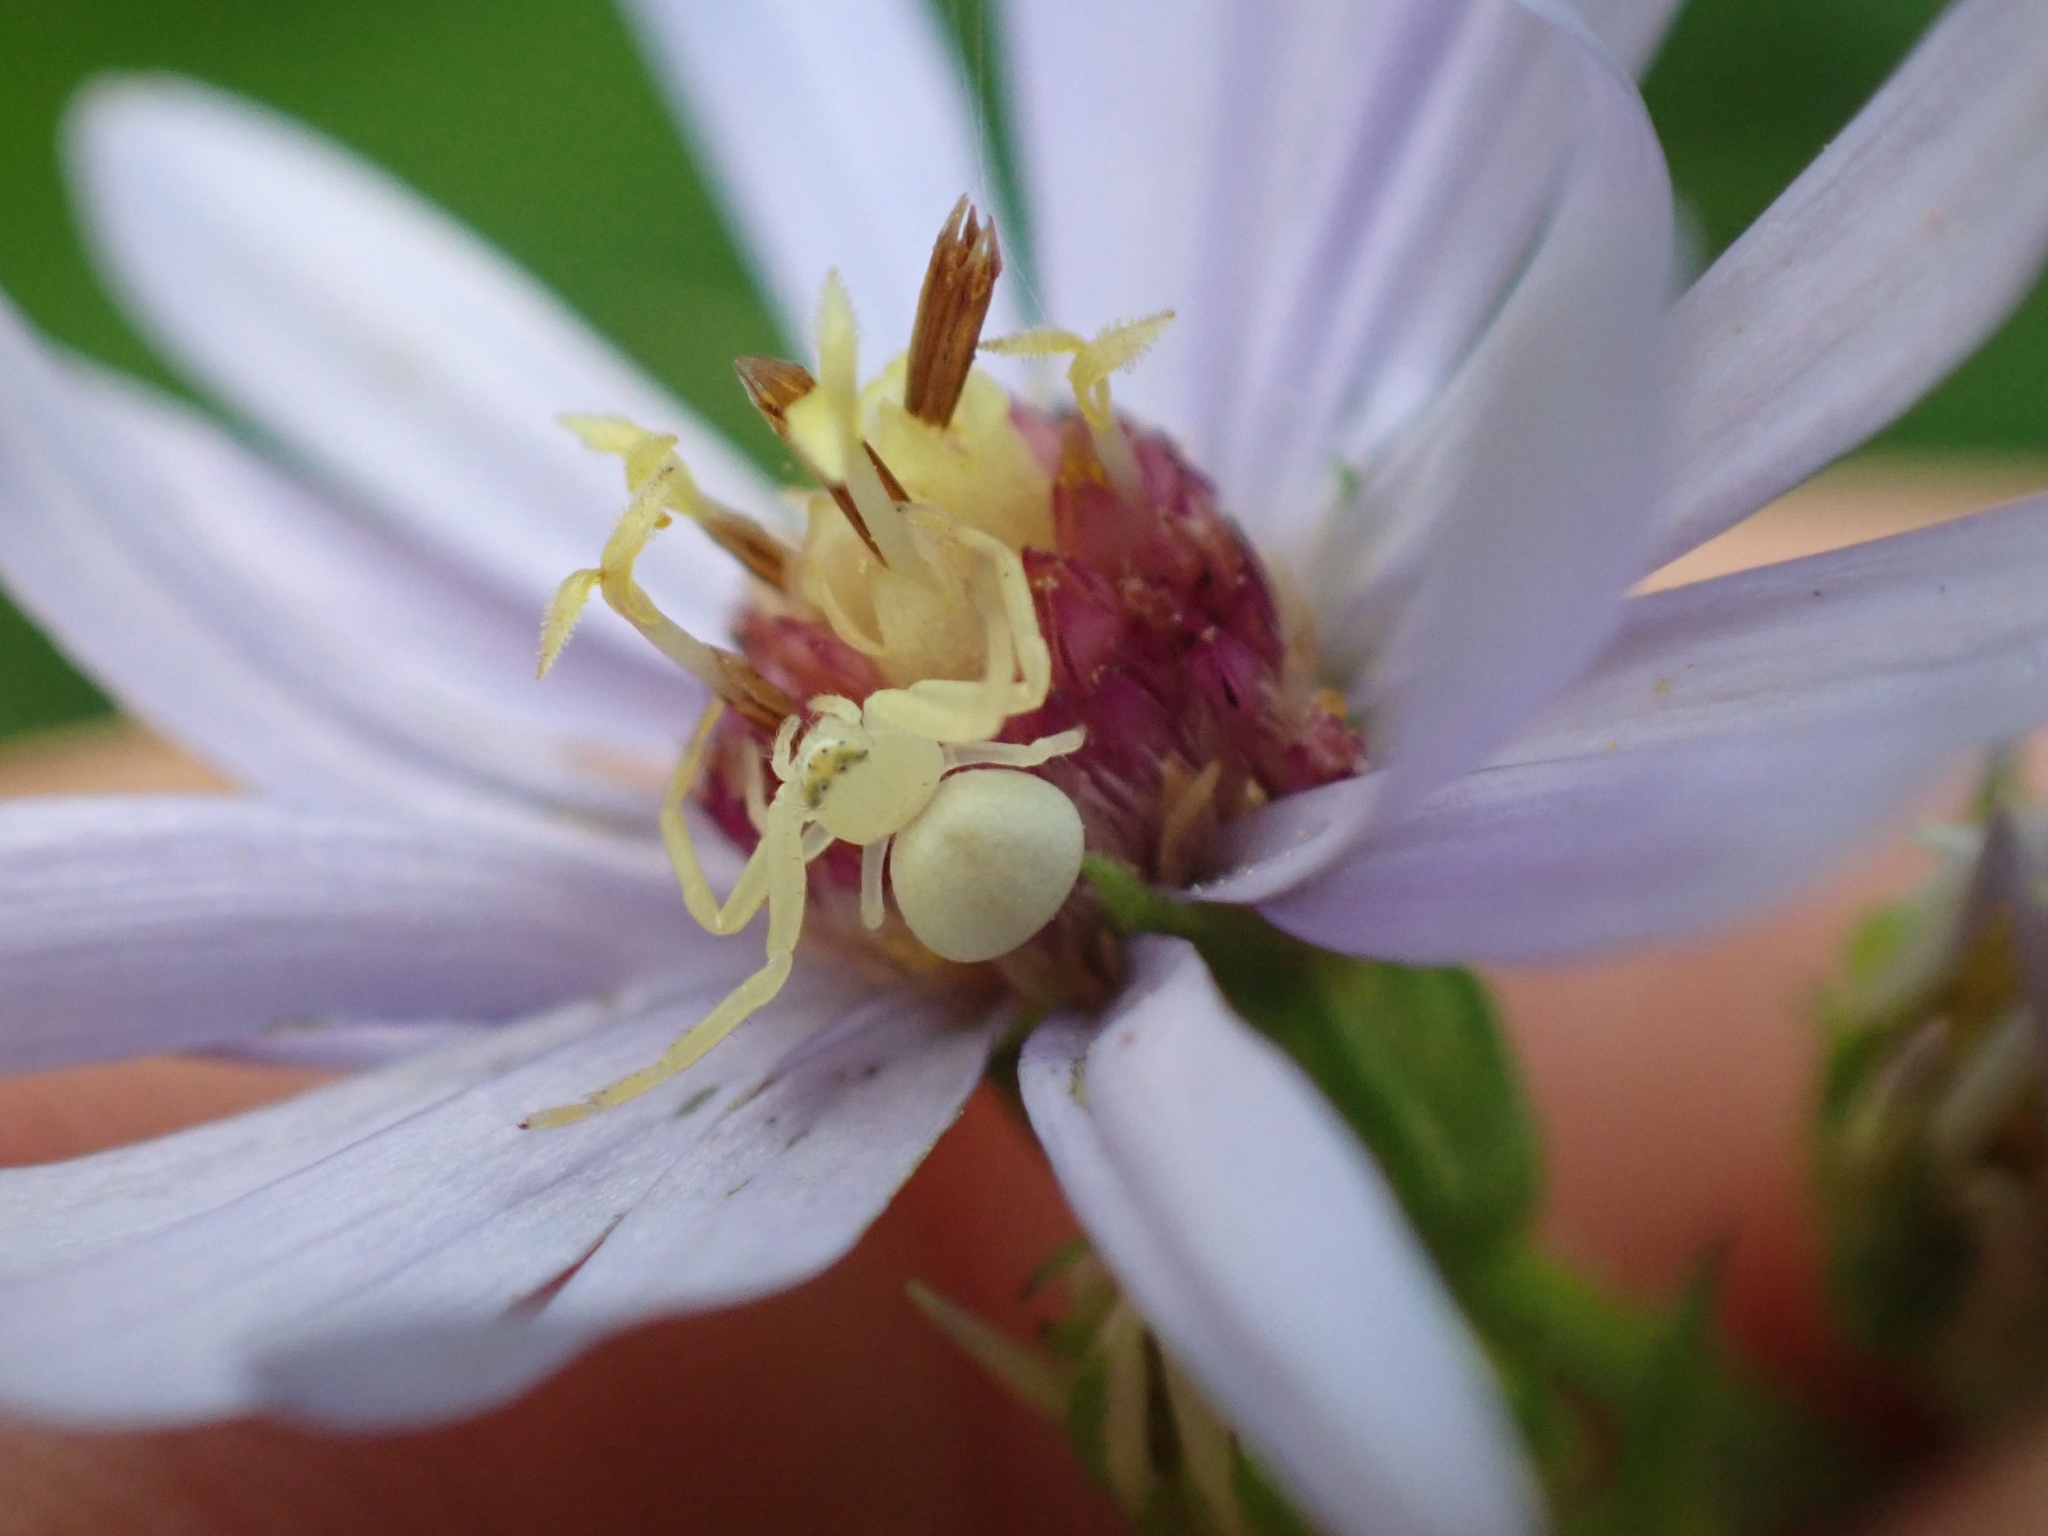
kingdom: Animalia
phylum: Arthropoda
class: Arachnida
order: Araneae
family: Thomisidae
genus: Misumena
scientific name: Misumena vatia
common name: Goldenrod crab spider
